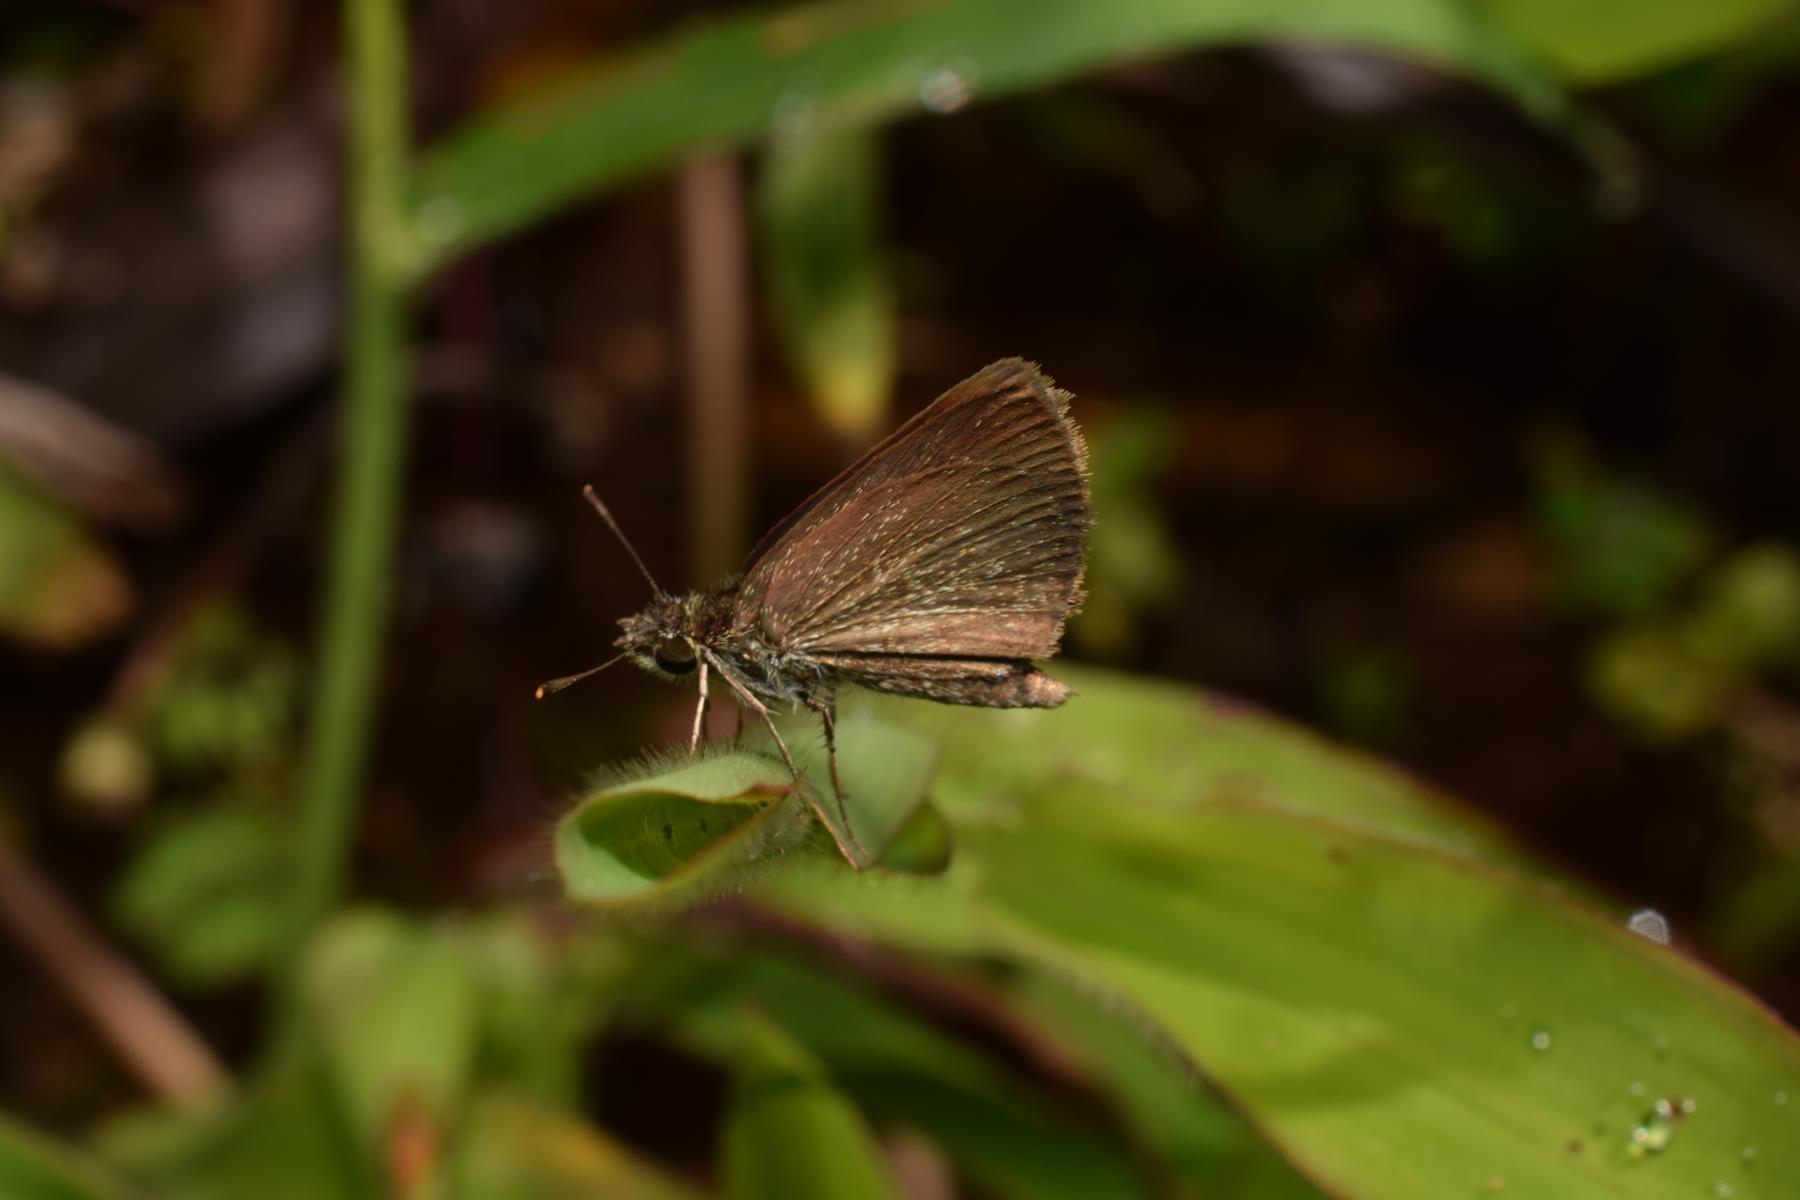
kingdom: Animalia
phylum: Arthropoda
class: Insecta
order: Lepidoptera
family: Hesperiidae
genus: Aeromachus
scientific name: Aeromachus pygmaeus
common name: Pygmy scrub hopper
